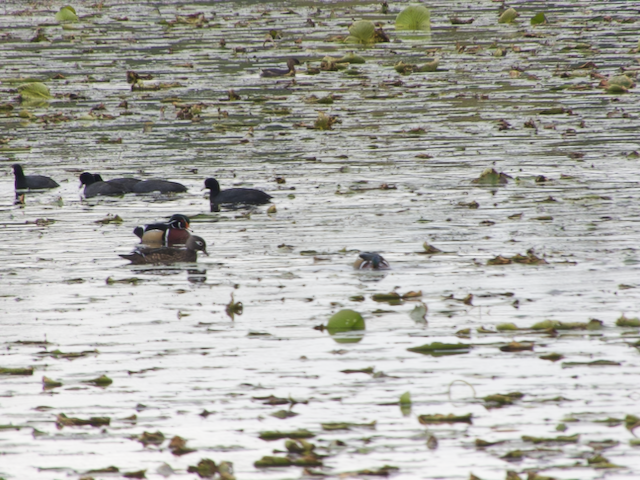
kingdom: Animalia
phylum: Chordata
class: Aves
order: Anseriformes
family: Anatidae
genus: Aix
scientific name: Aix sponsa
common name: Wood duck
